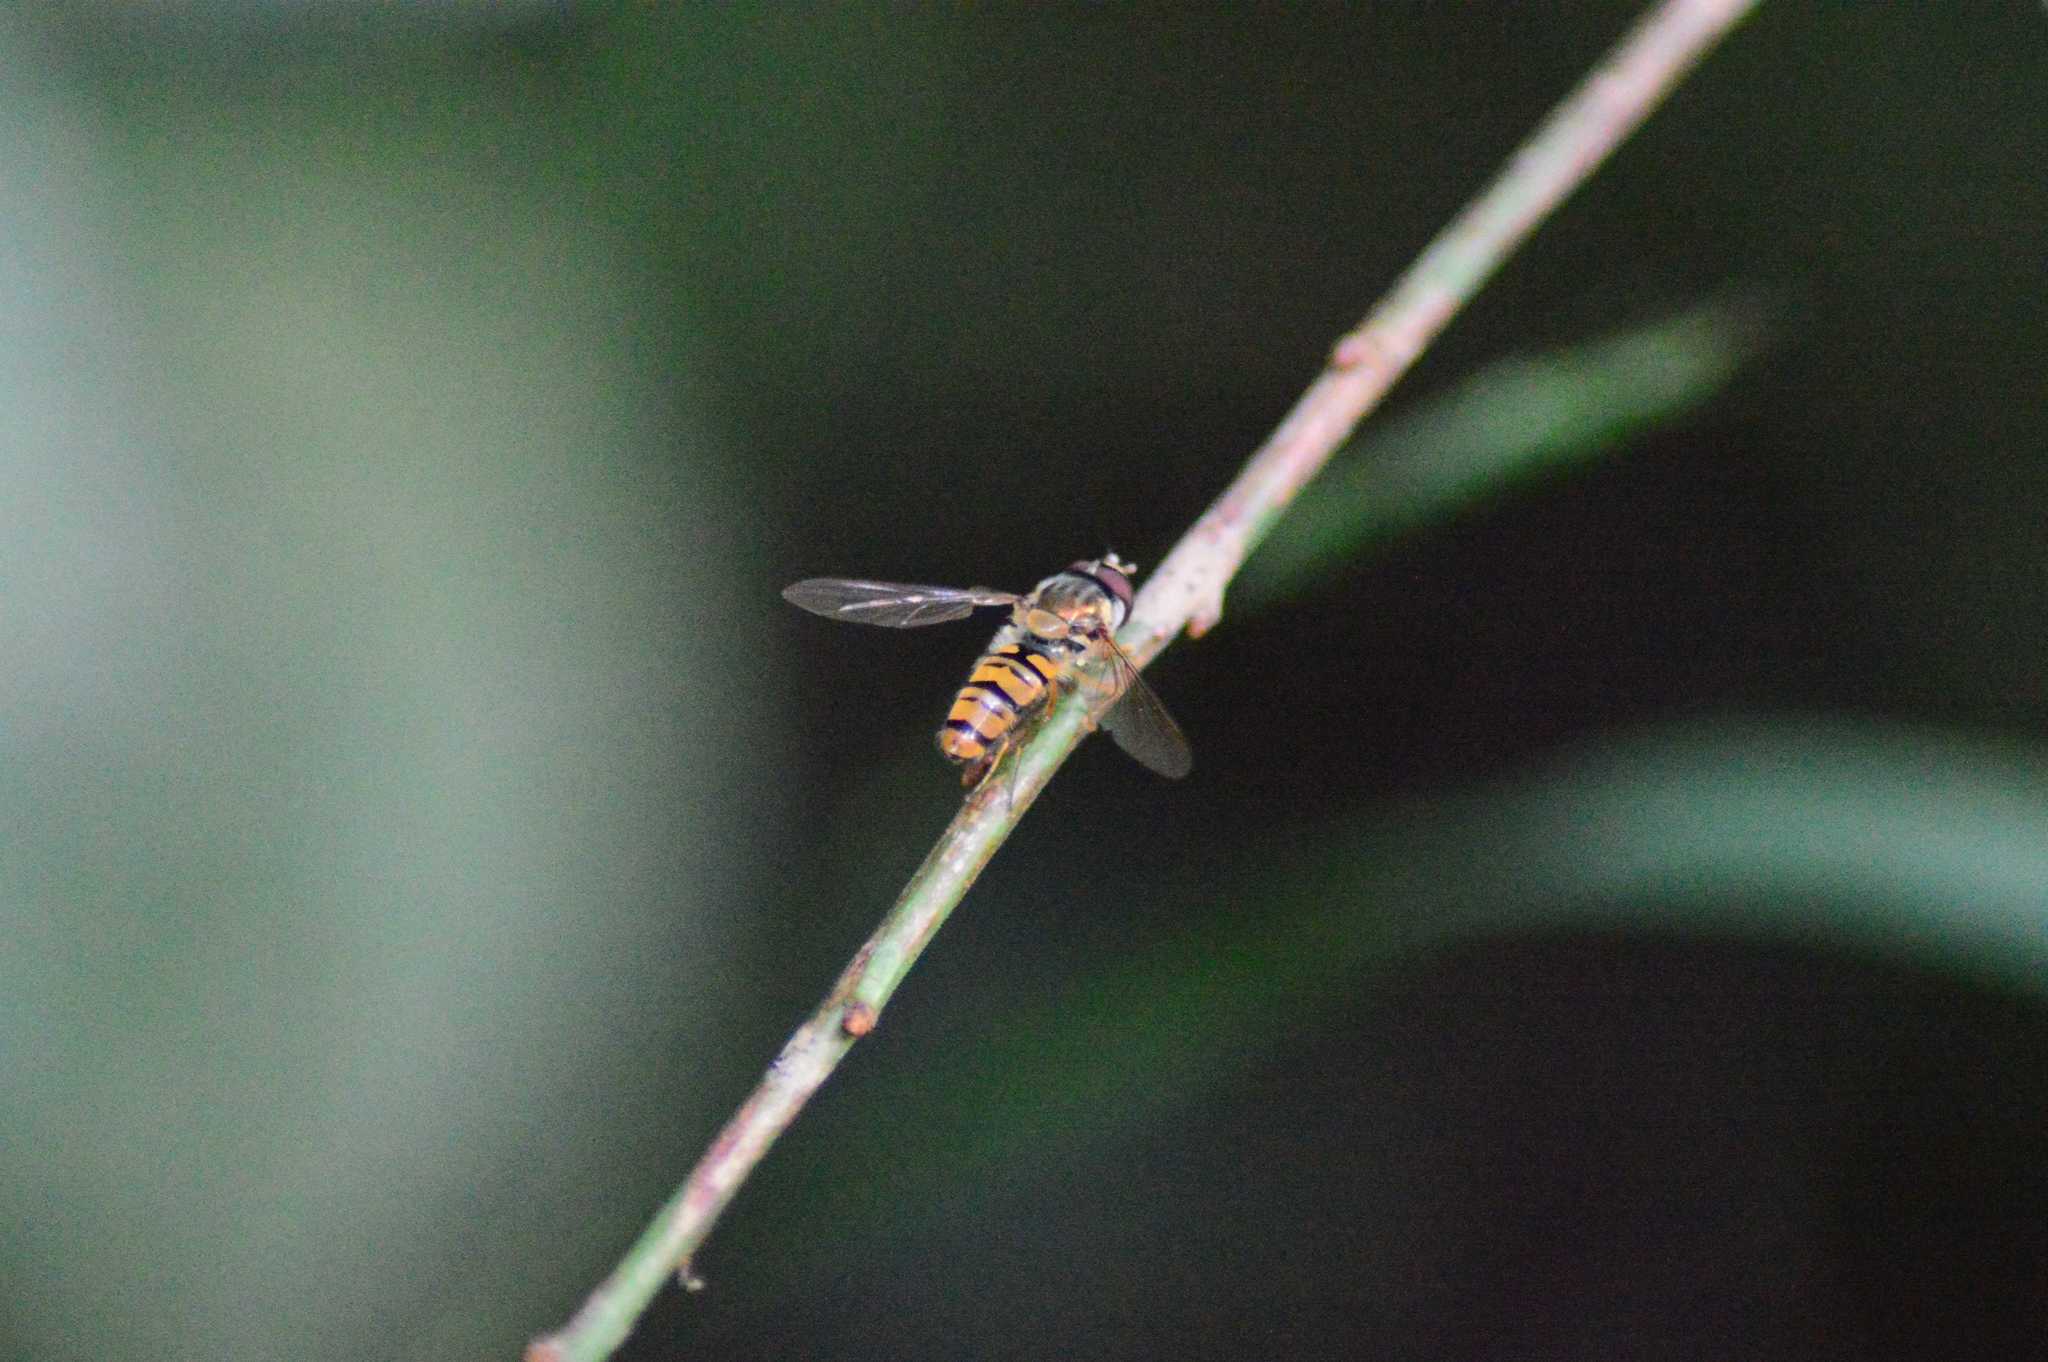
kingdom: Animalia
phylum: Arthropoda
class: Insecta
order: Diptera
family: Syrphidae
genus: Episyrphus
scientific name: Episyrphus balteatus
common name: Marmalade hoverfly
